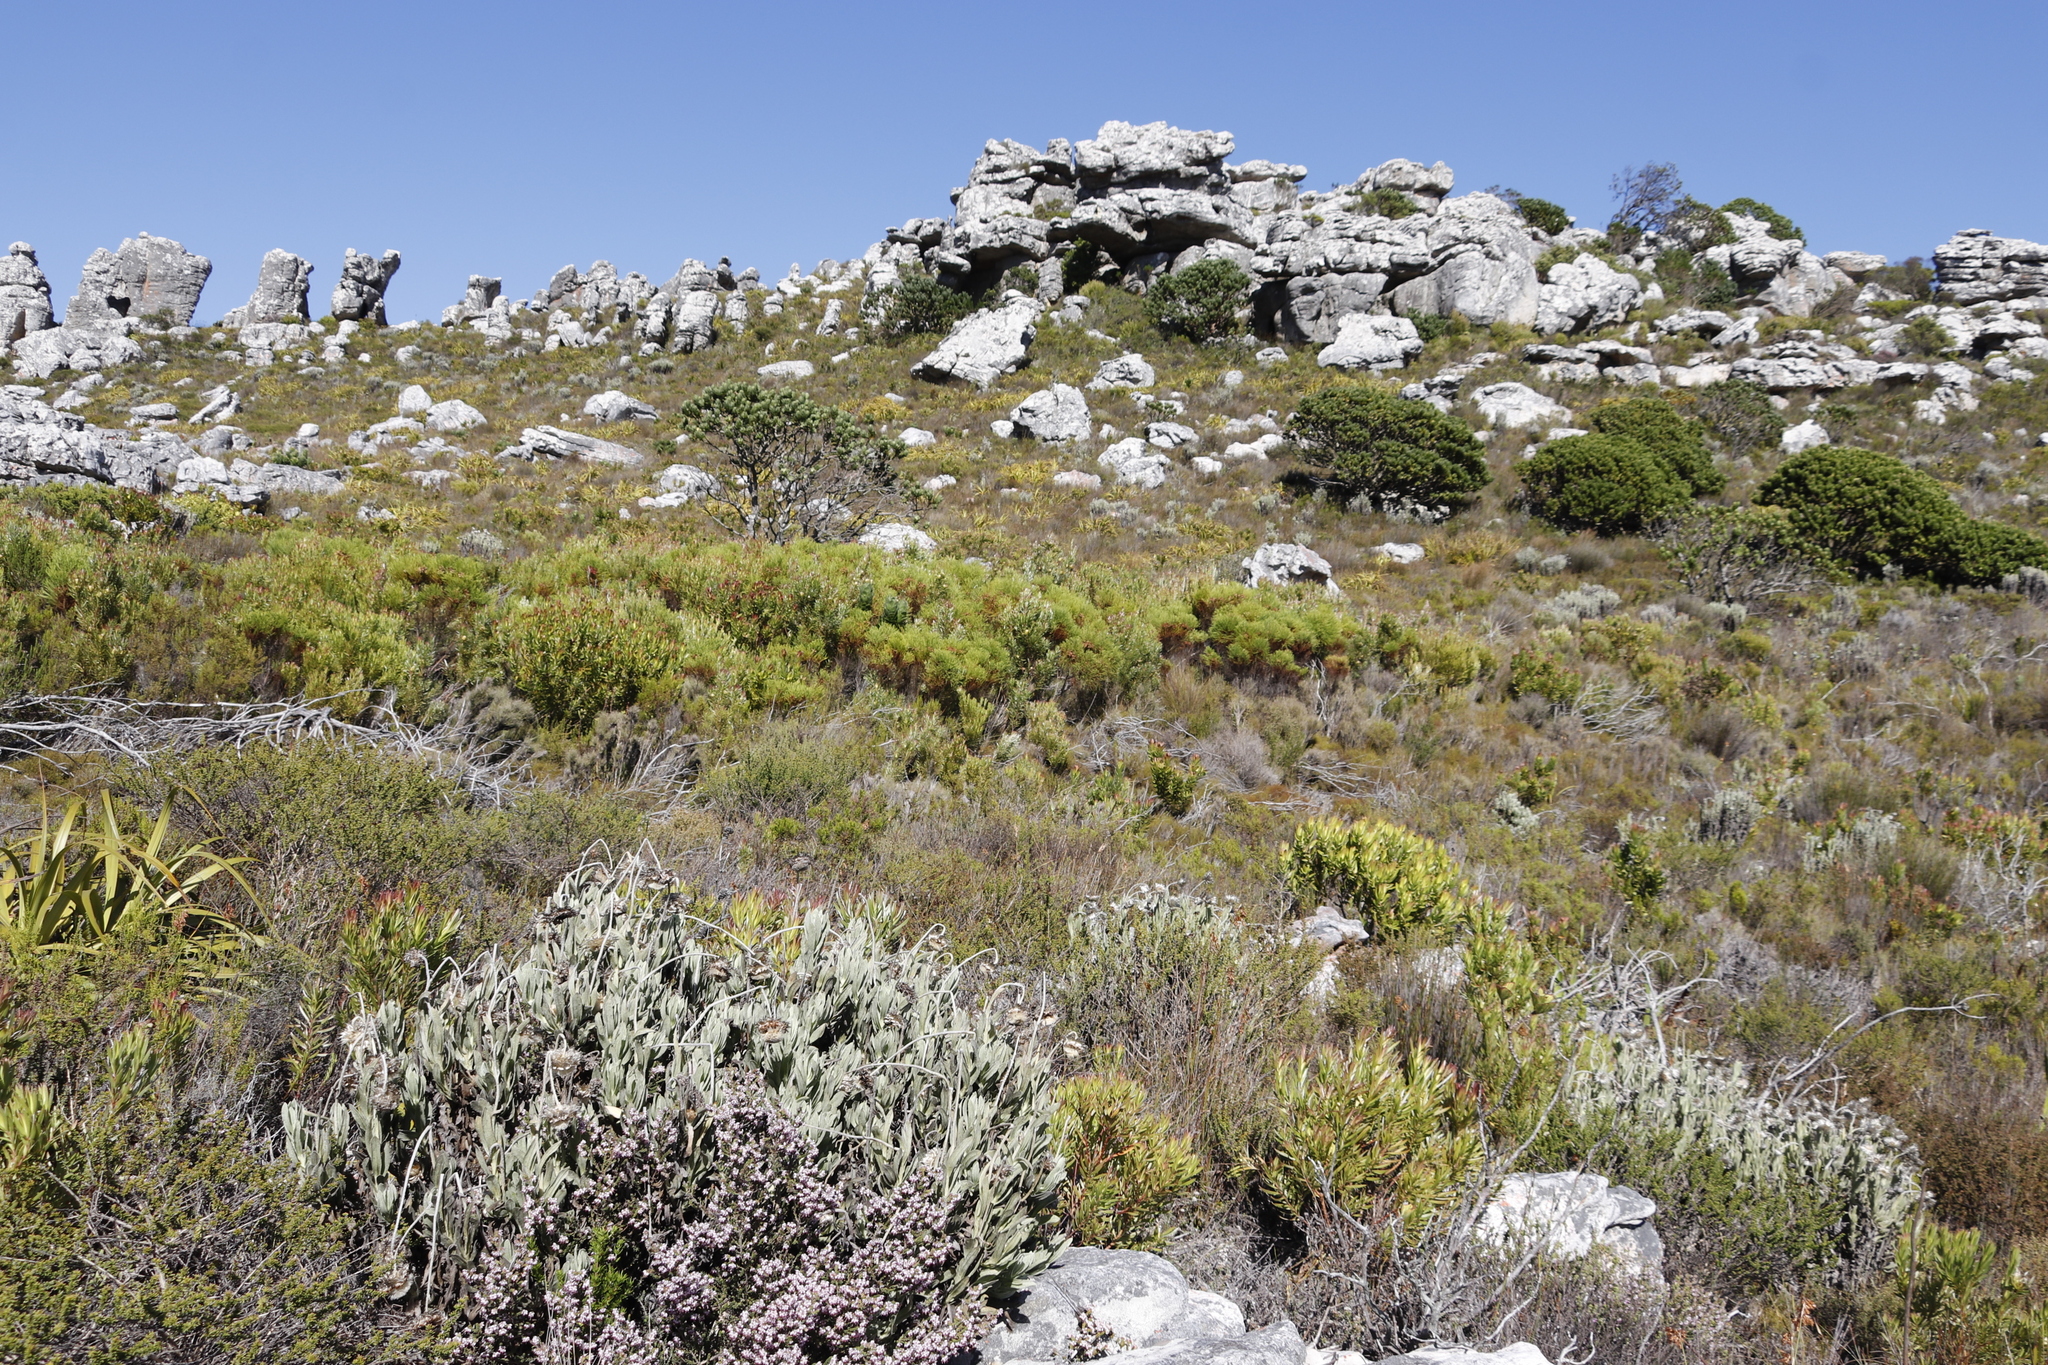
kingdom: Plantae
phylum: Tracheophyta
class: Magnoliopsida
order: Bruniales
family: Bruniaceae
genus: Berzelia
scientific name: Berzelia lanuginosa
